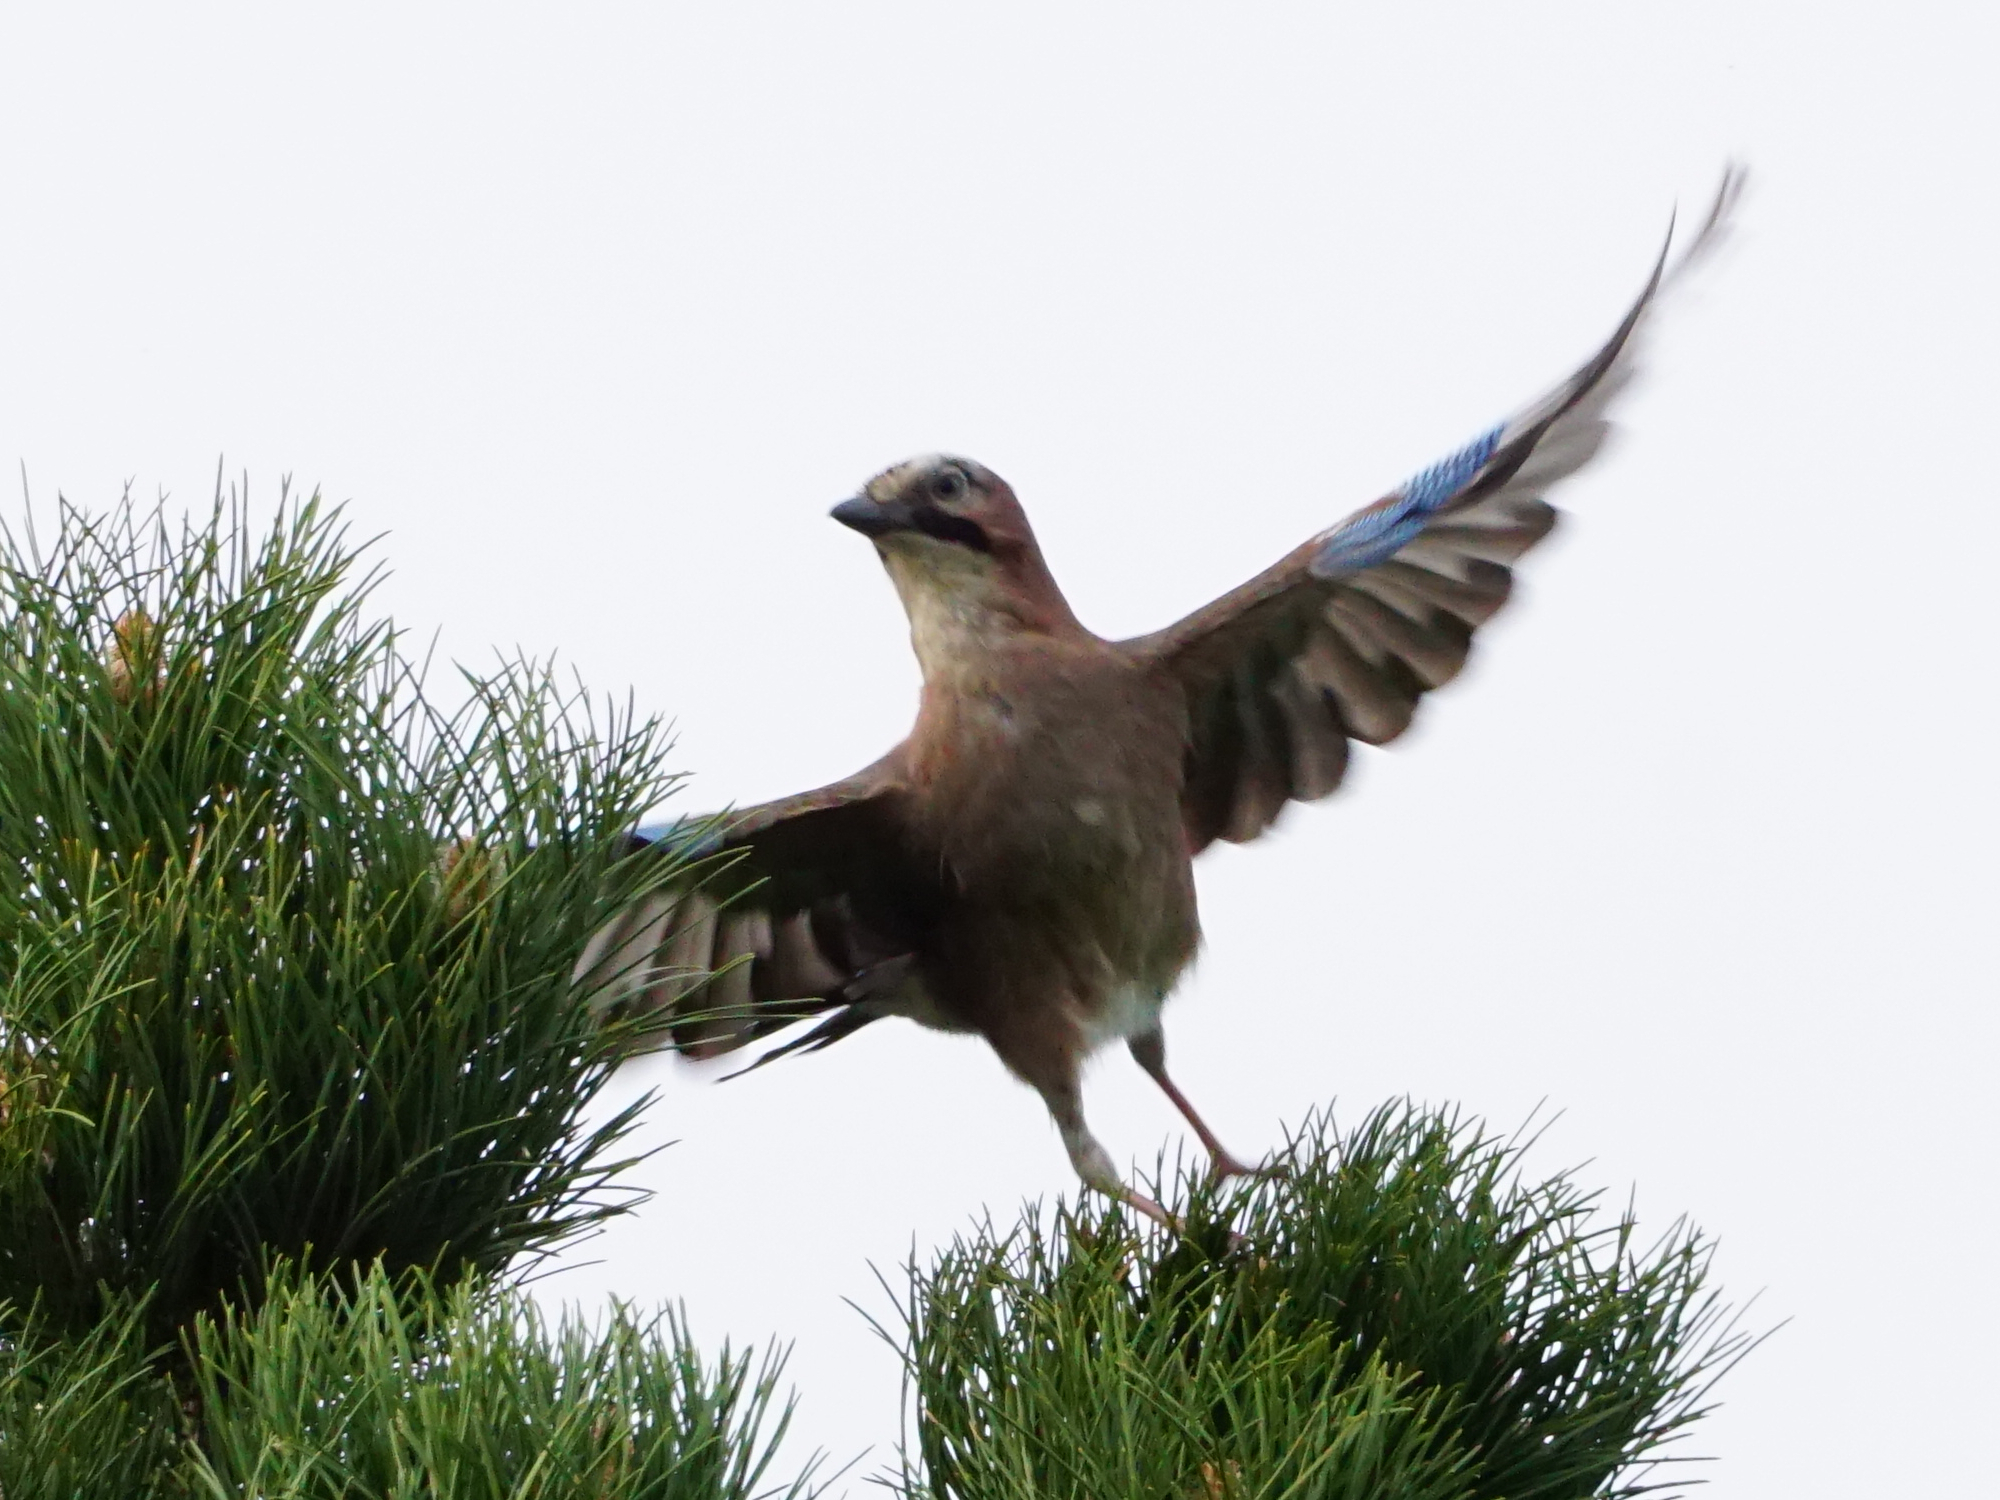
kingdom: Animalia
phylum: Chordata
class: Aves
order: Passeriformes
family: Corvidae
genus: Garrulus
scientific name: Garrulus glandarius
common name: Eurasian jay
